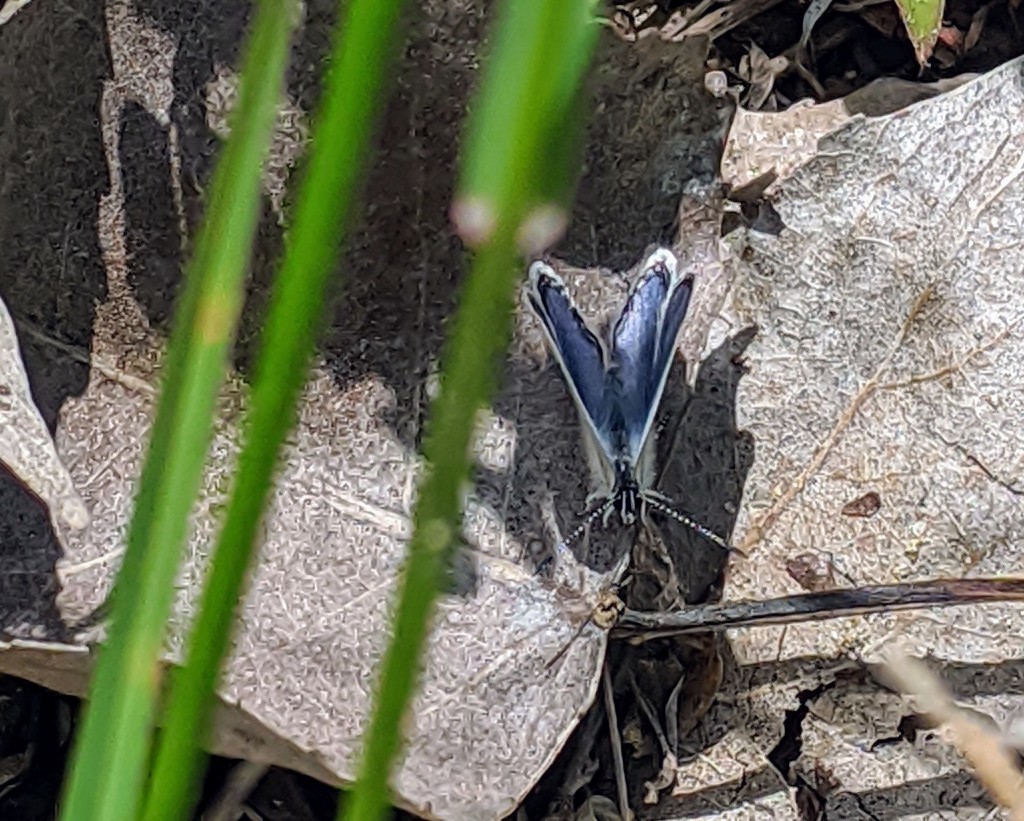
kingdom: Animalia
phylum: Arthropoda
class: Insecta
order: Lepidoptera
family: Lycaenidae
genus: Elkalyce
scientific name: Elkalyce comyntas
